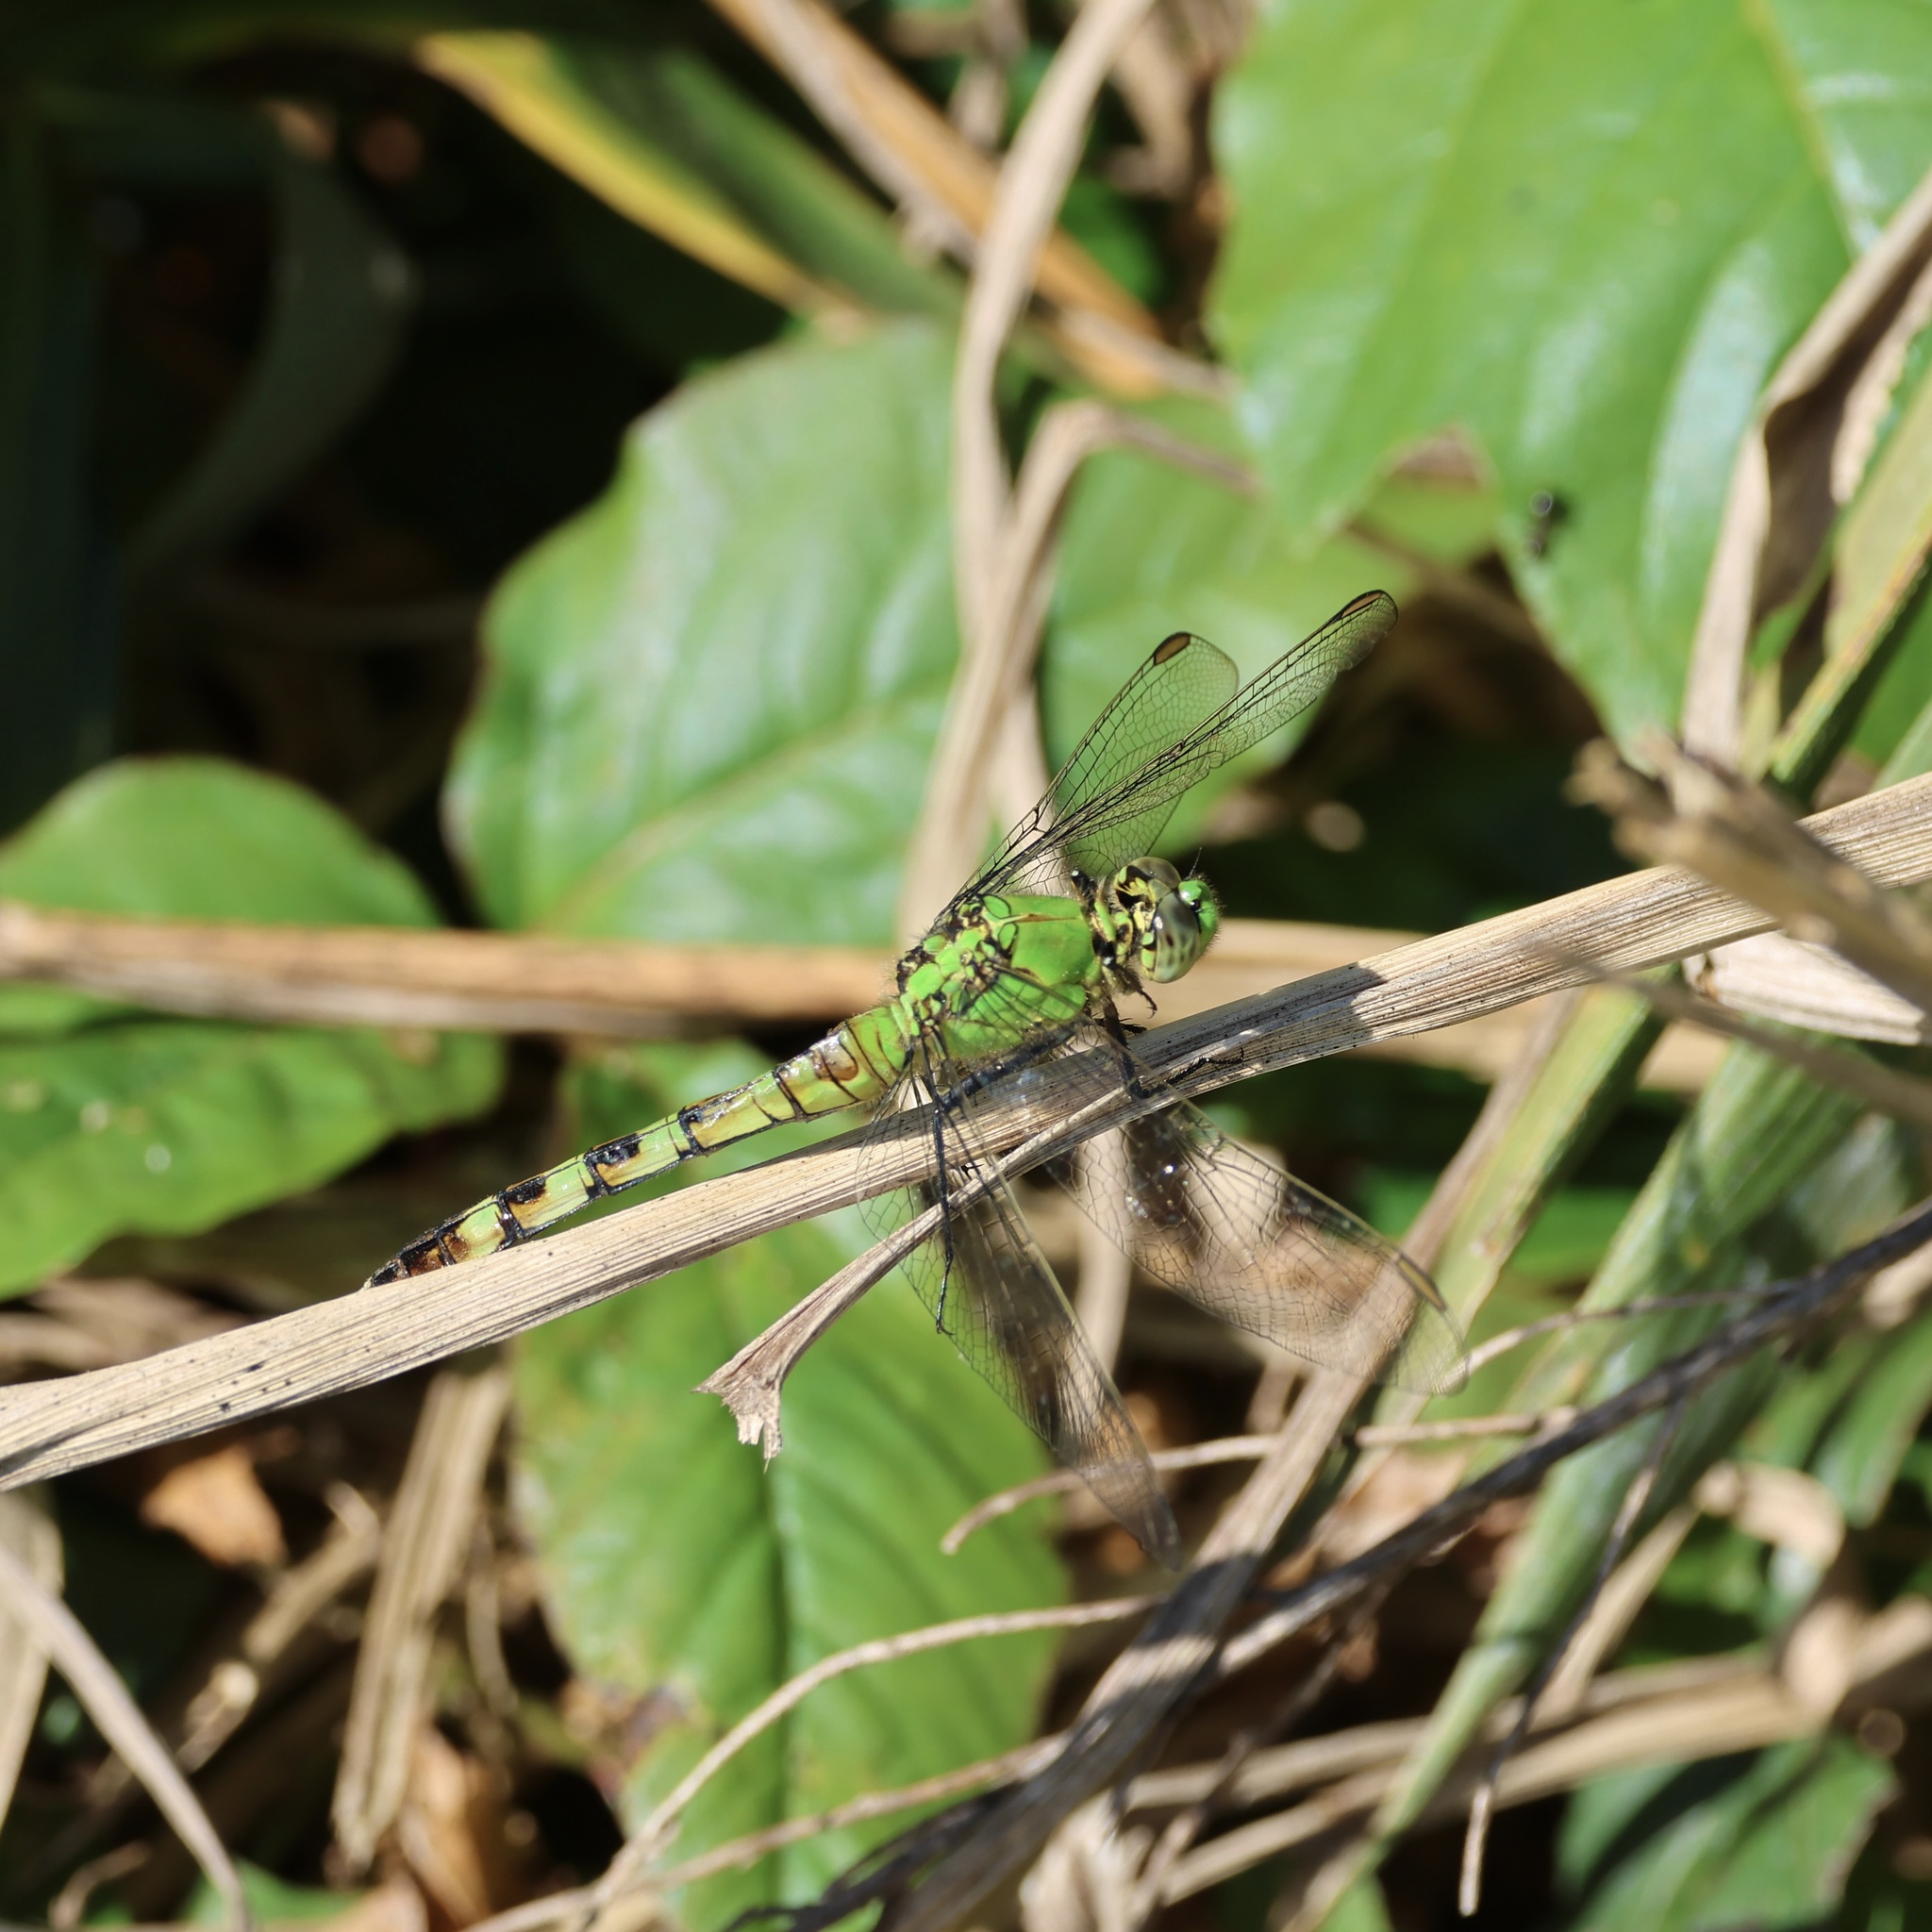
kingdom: Animalia
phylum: Arthropoda
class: Insecta
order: Odonata
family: Libellulidae
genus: Erythemis
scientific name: Erythemis simplicicollis
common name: Eastern pondhawk
